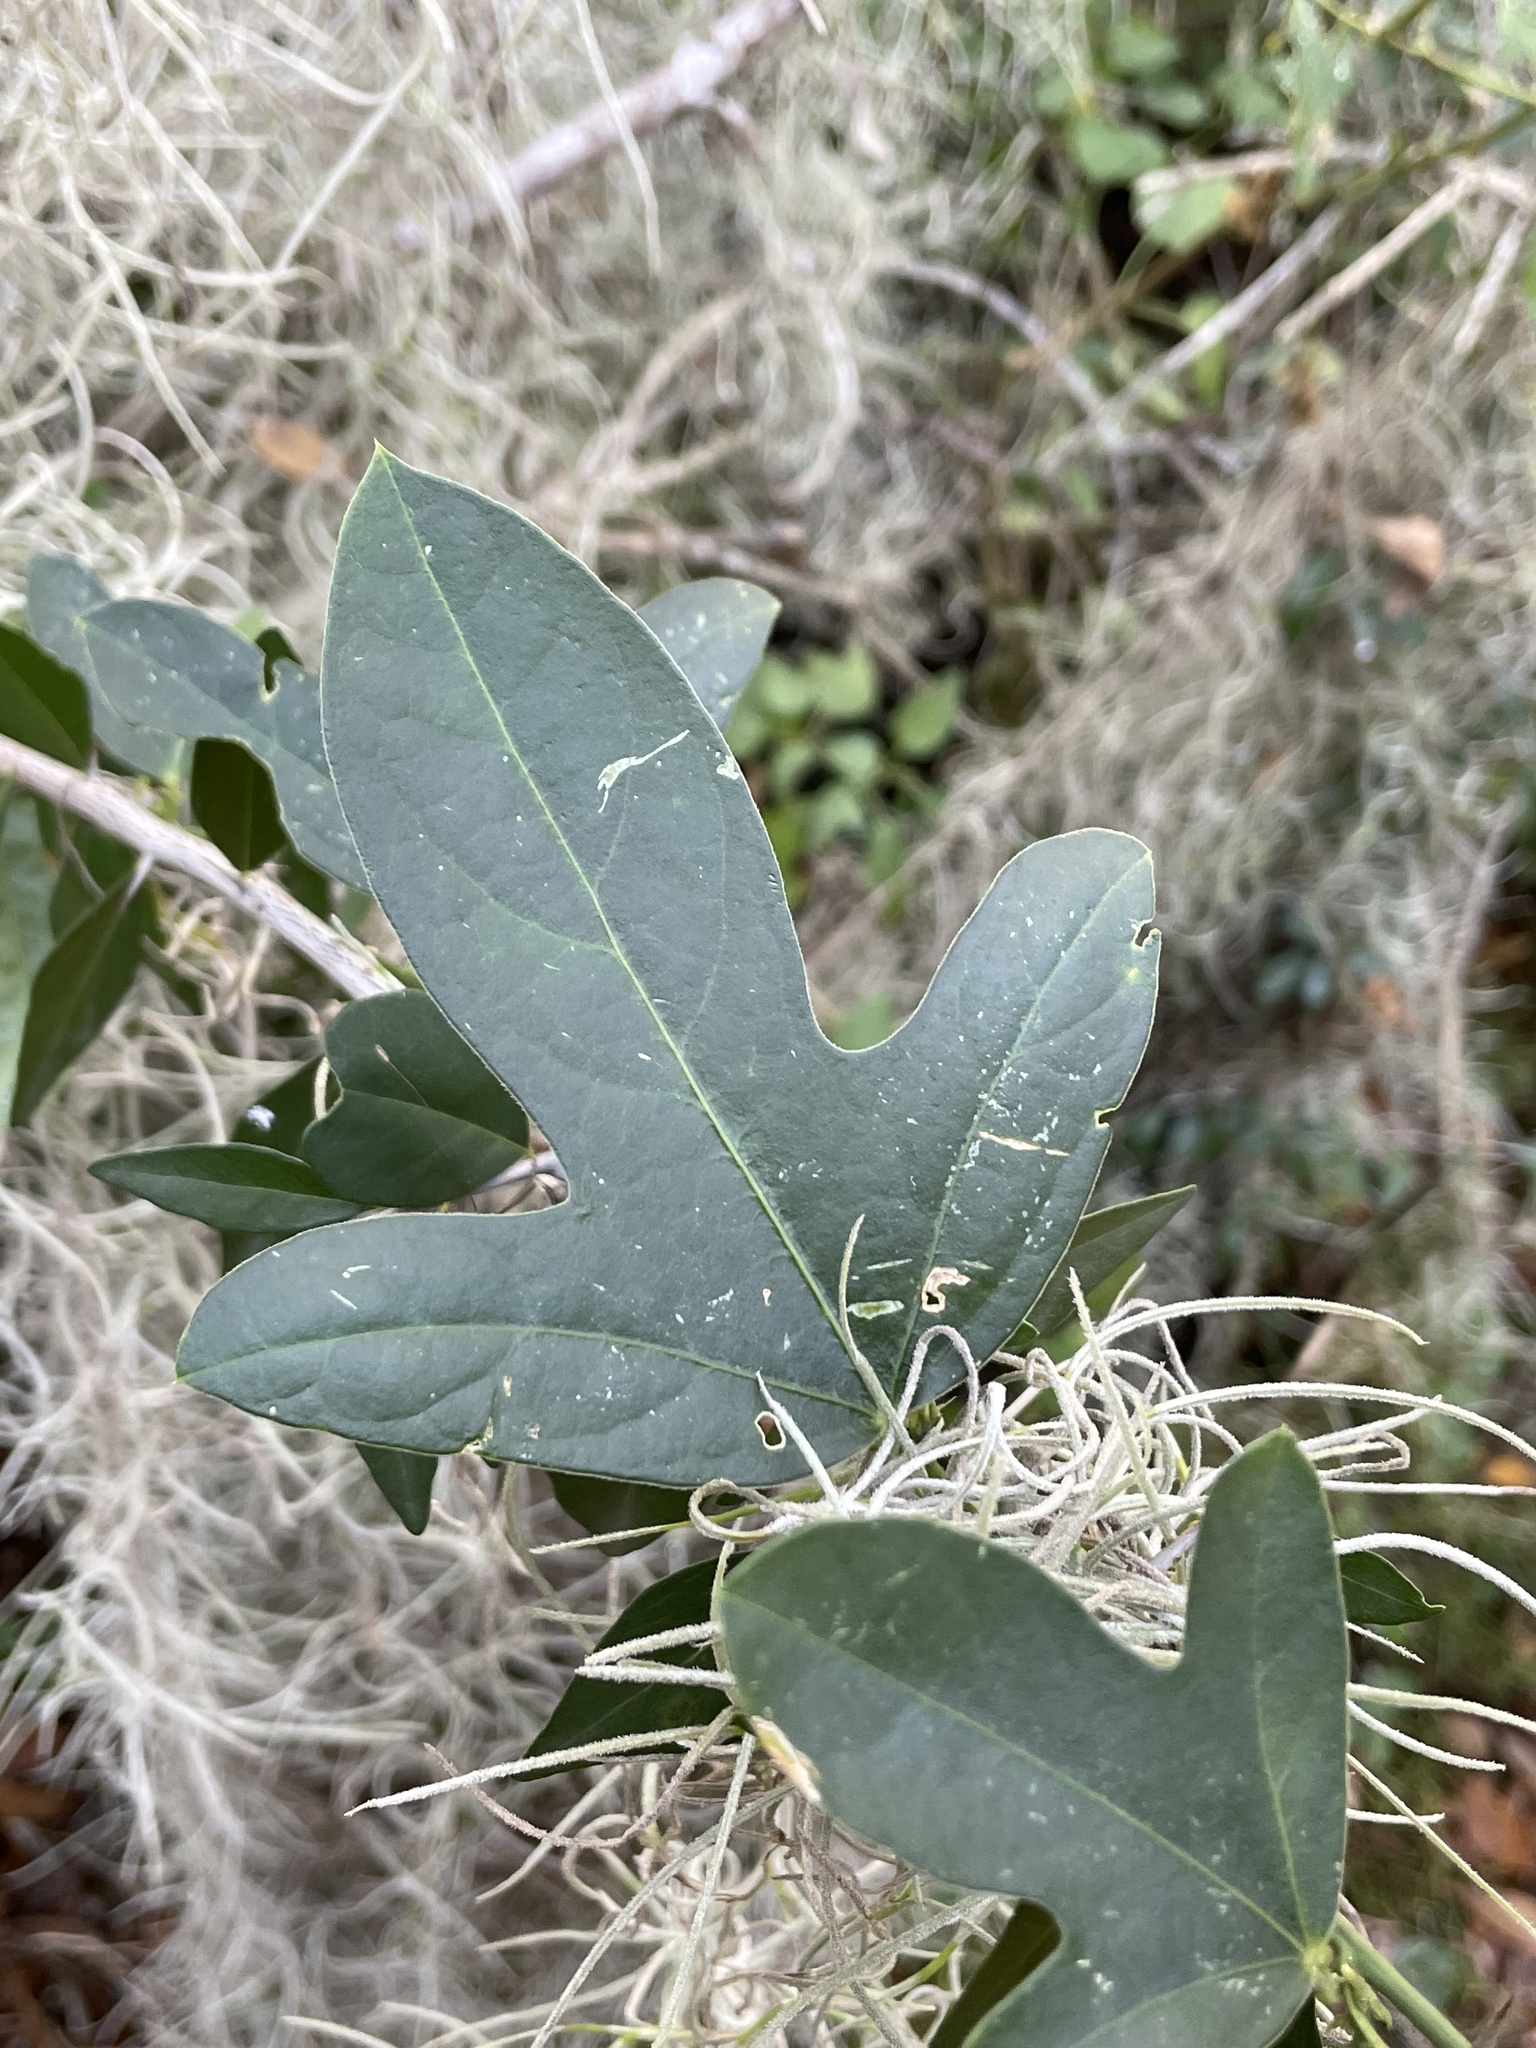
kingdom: Plantae
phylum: Tracheophyta
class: Magnoliopsida
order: Malpighiales
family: Passifloraceae
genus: Passiflora
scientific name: Passiflora pallida
